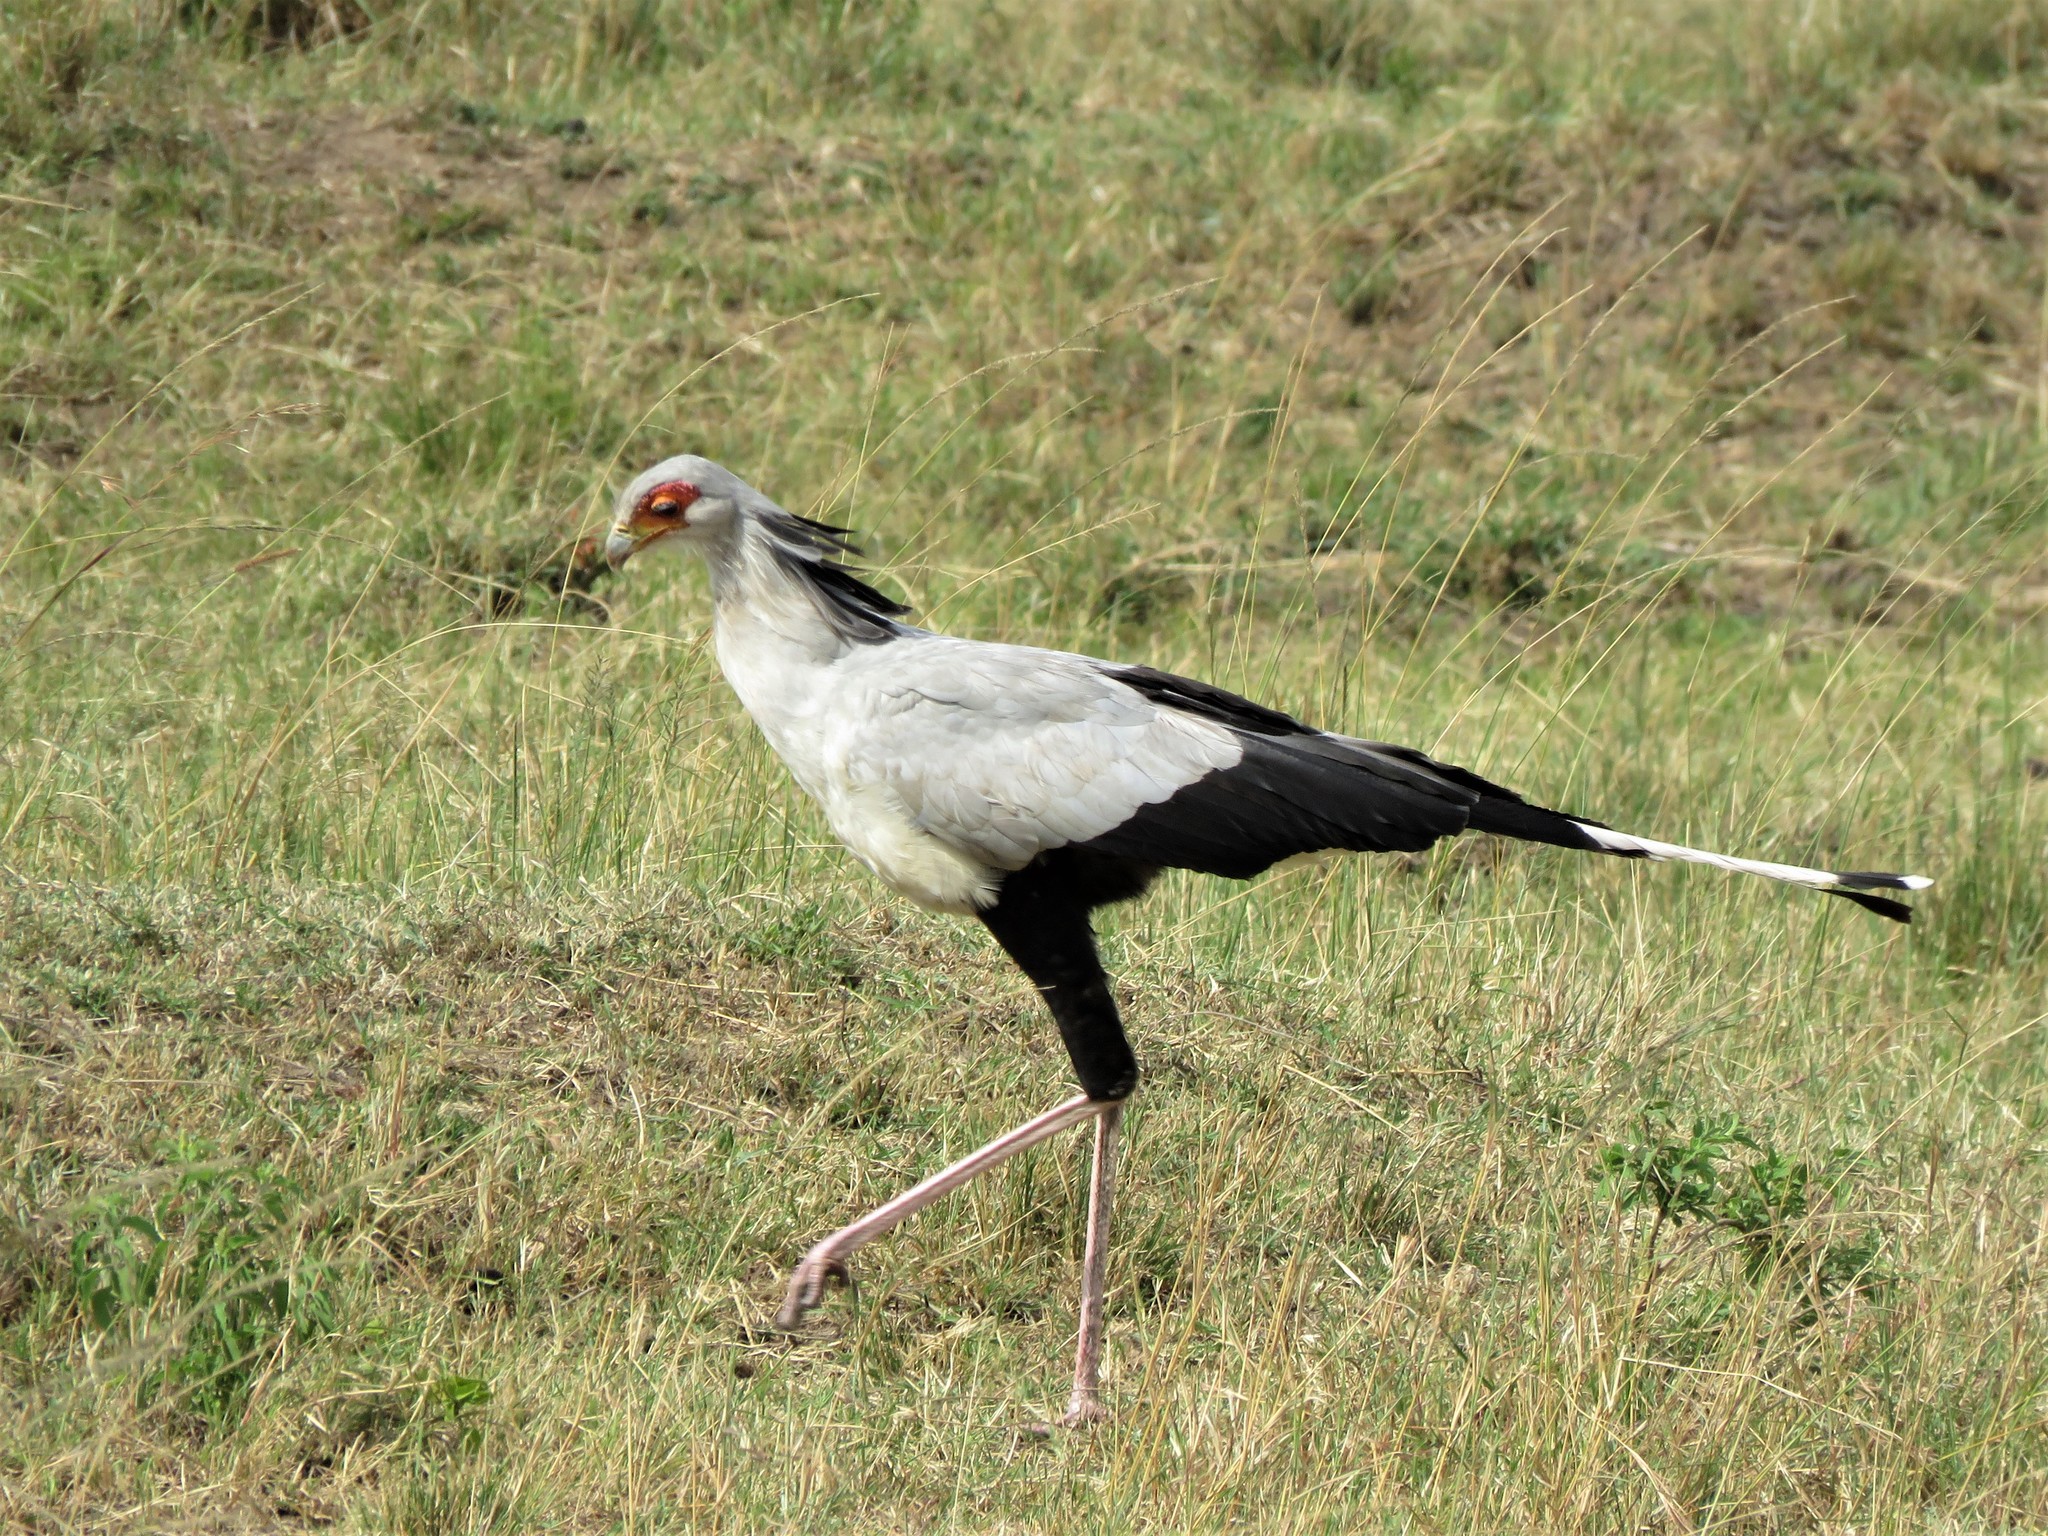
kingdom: Animalia
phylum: Chordata
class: Aves
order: Accipitriformes
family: Sagittariidae
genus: Sagittarius
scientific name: Sagittarius serpentarius
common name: Secretarybird
